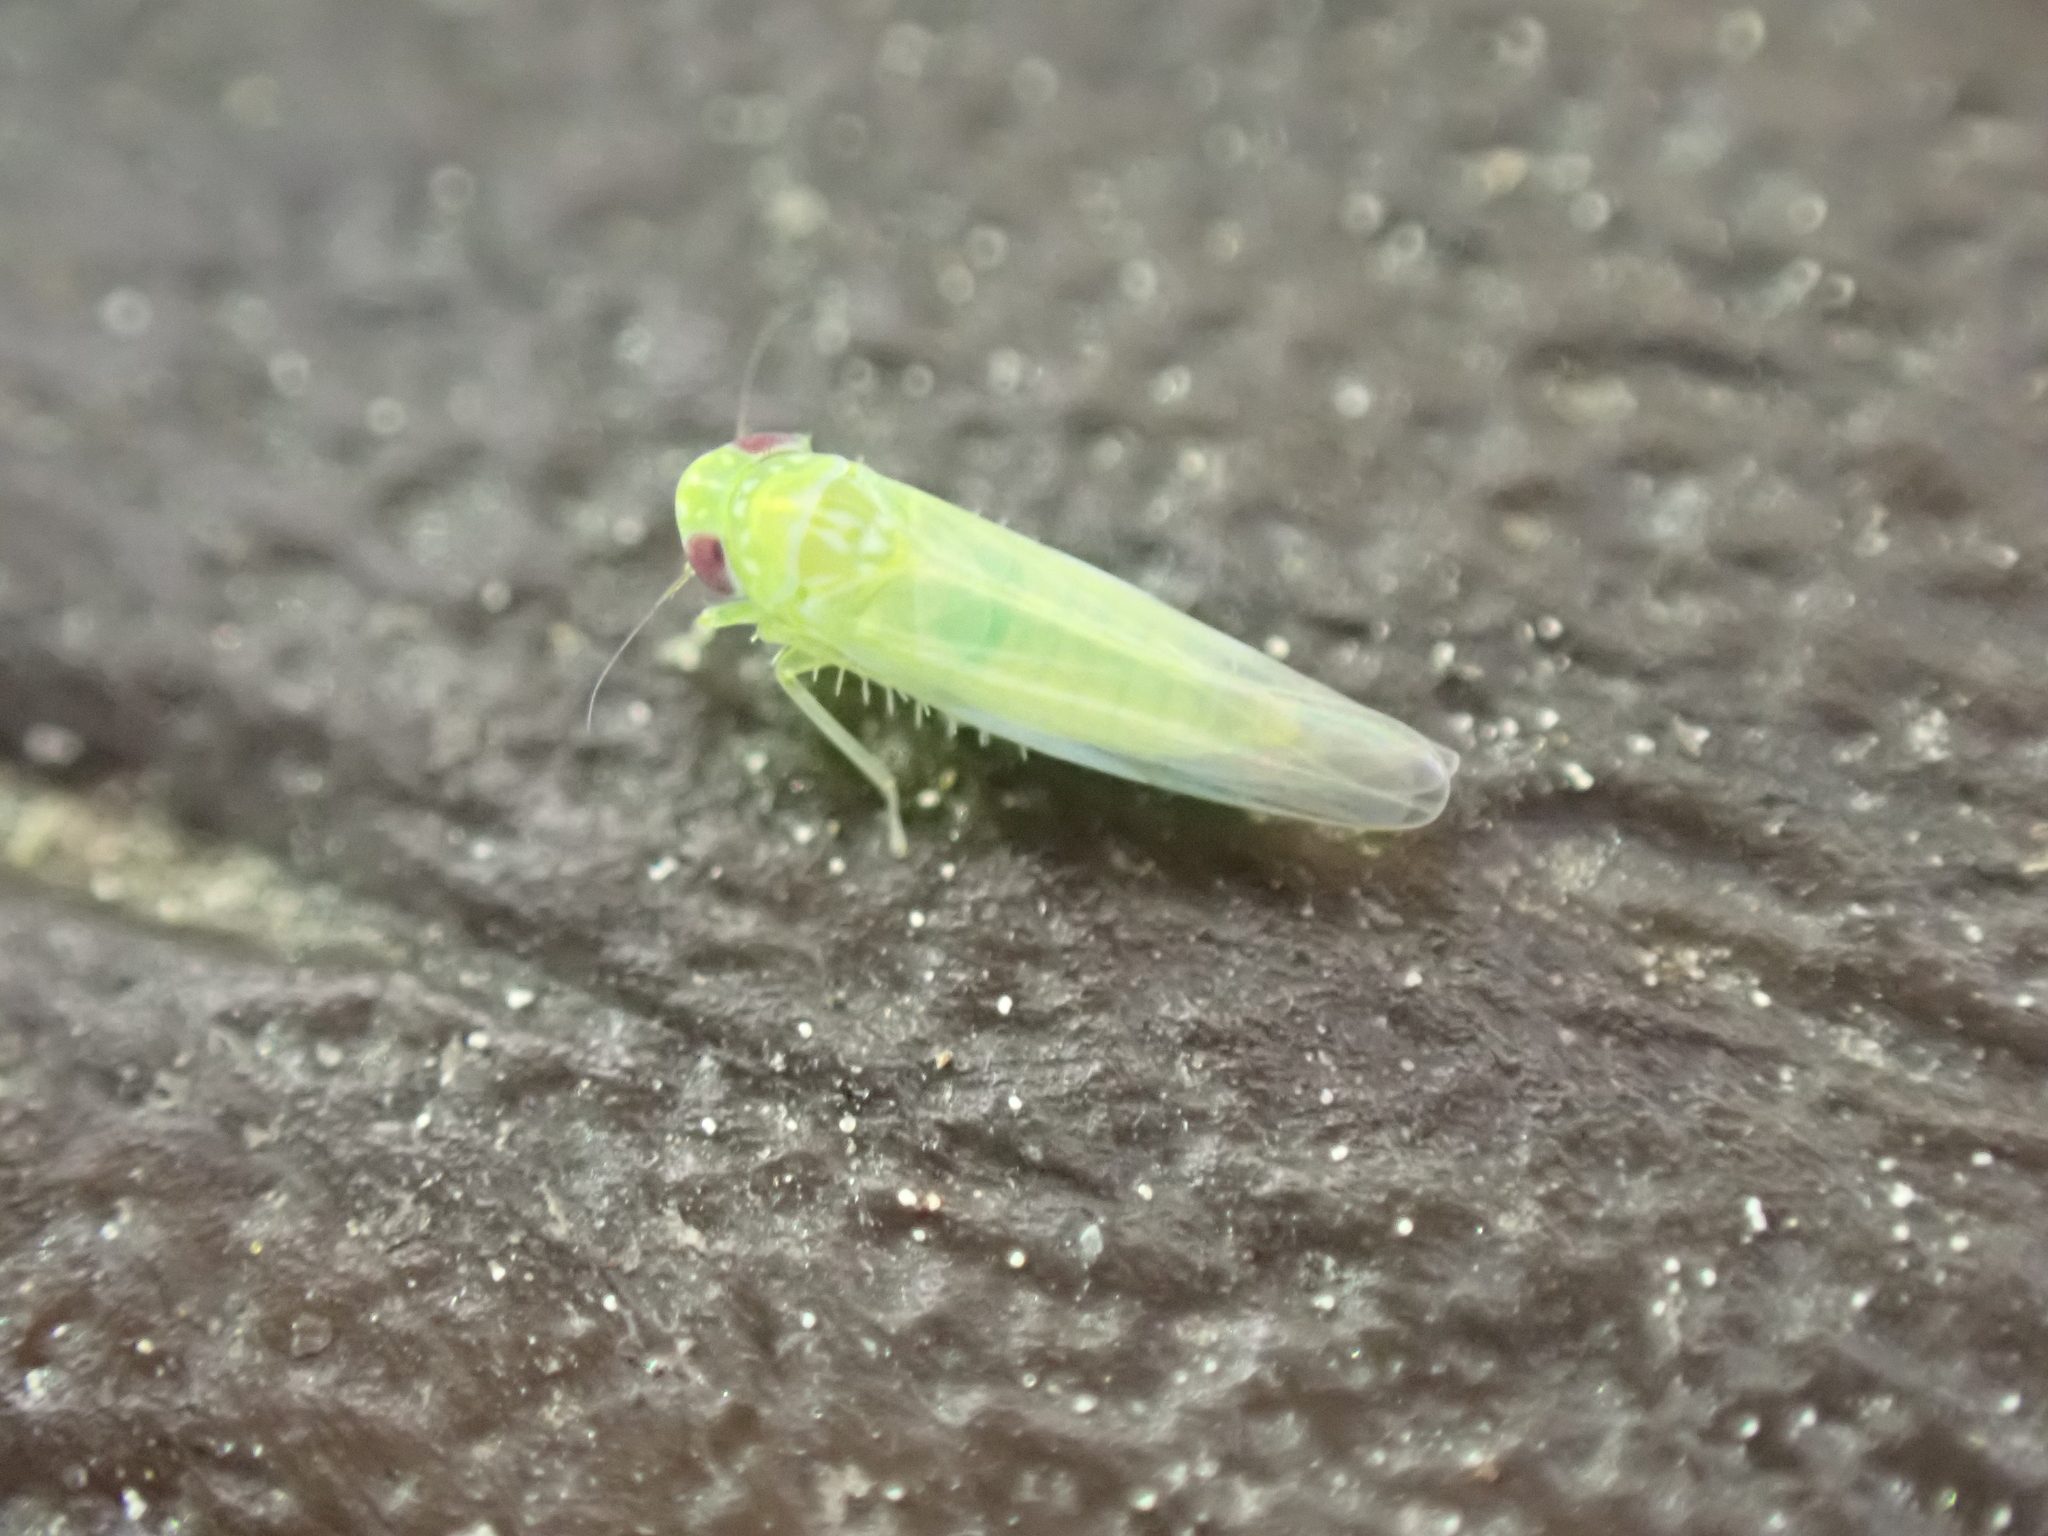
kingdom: Animalia
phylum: Arthropoda
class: Insecta
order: Hemiptera
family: Cicadellidae
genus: Empoasca
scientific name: Empoasca fabae
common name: Potato leafhopper
